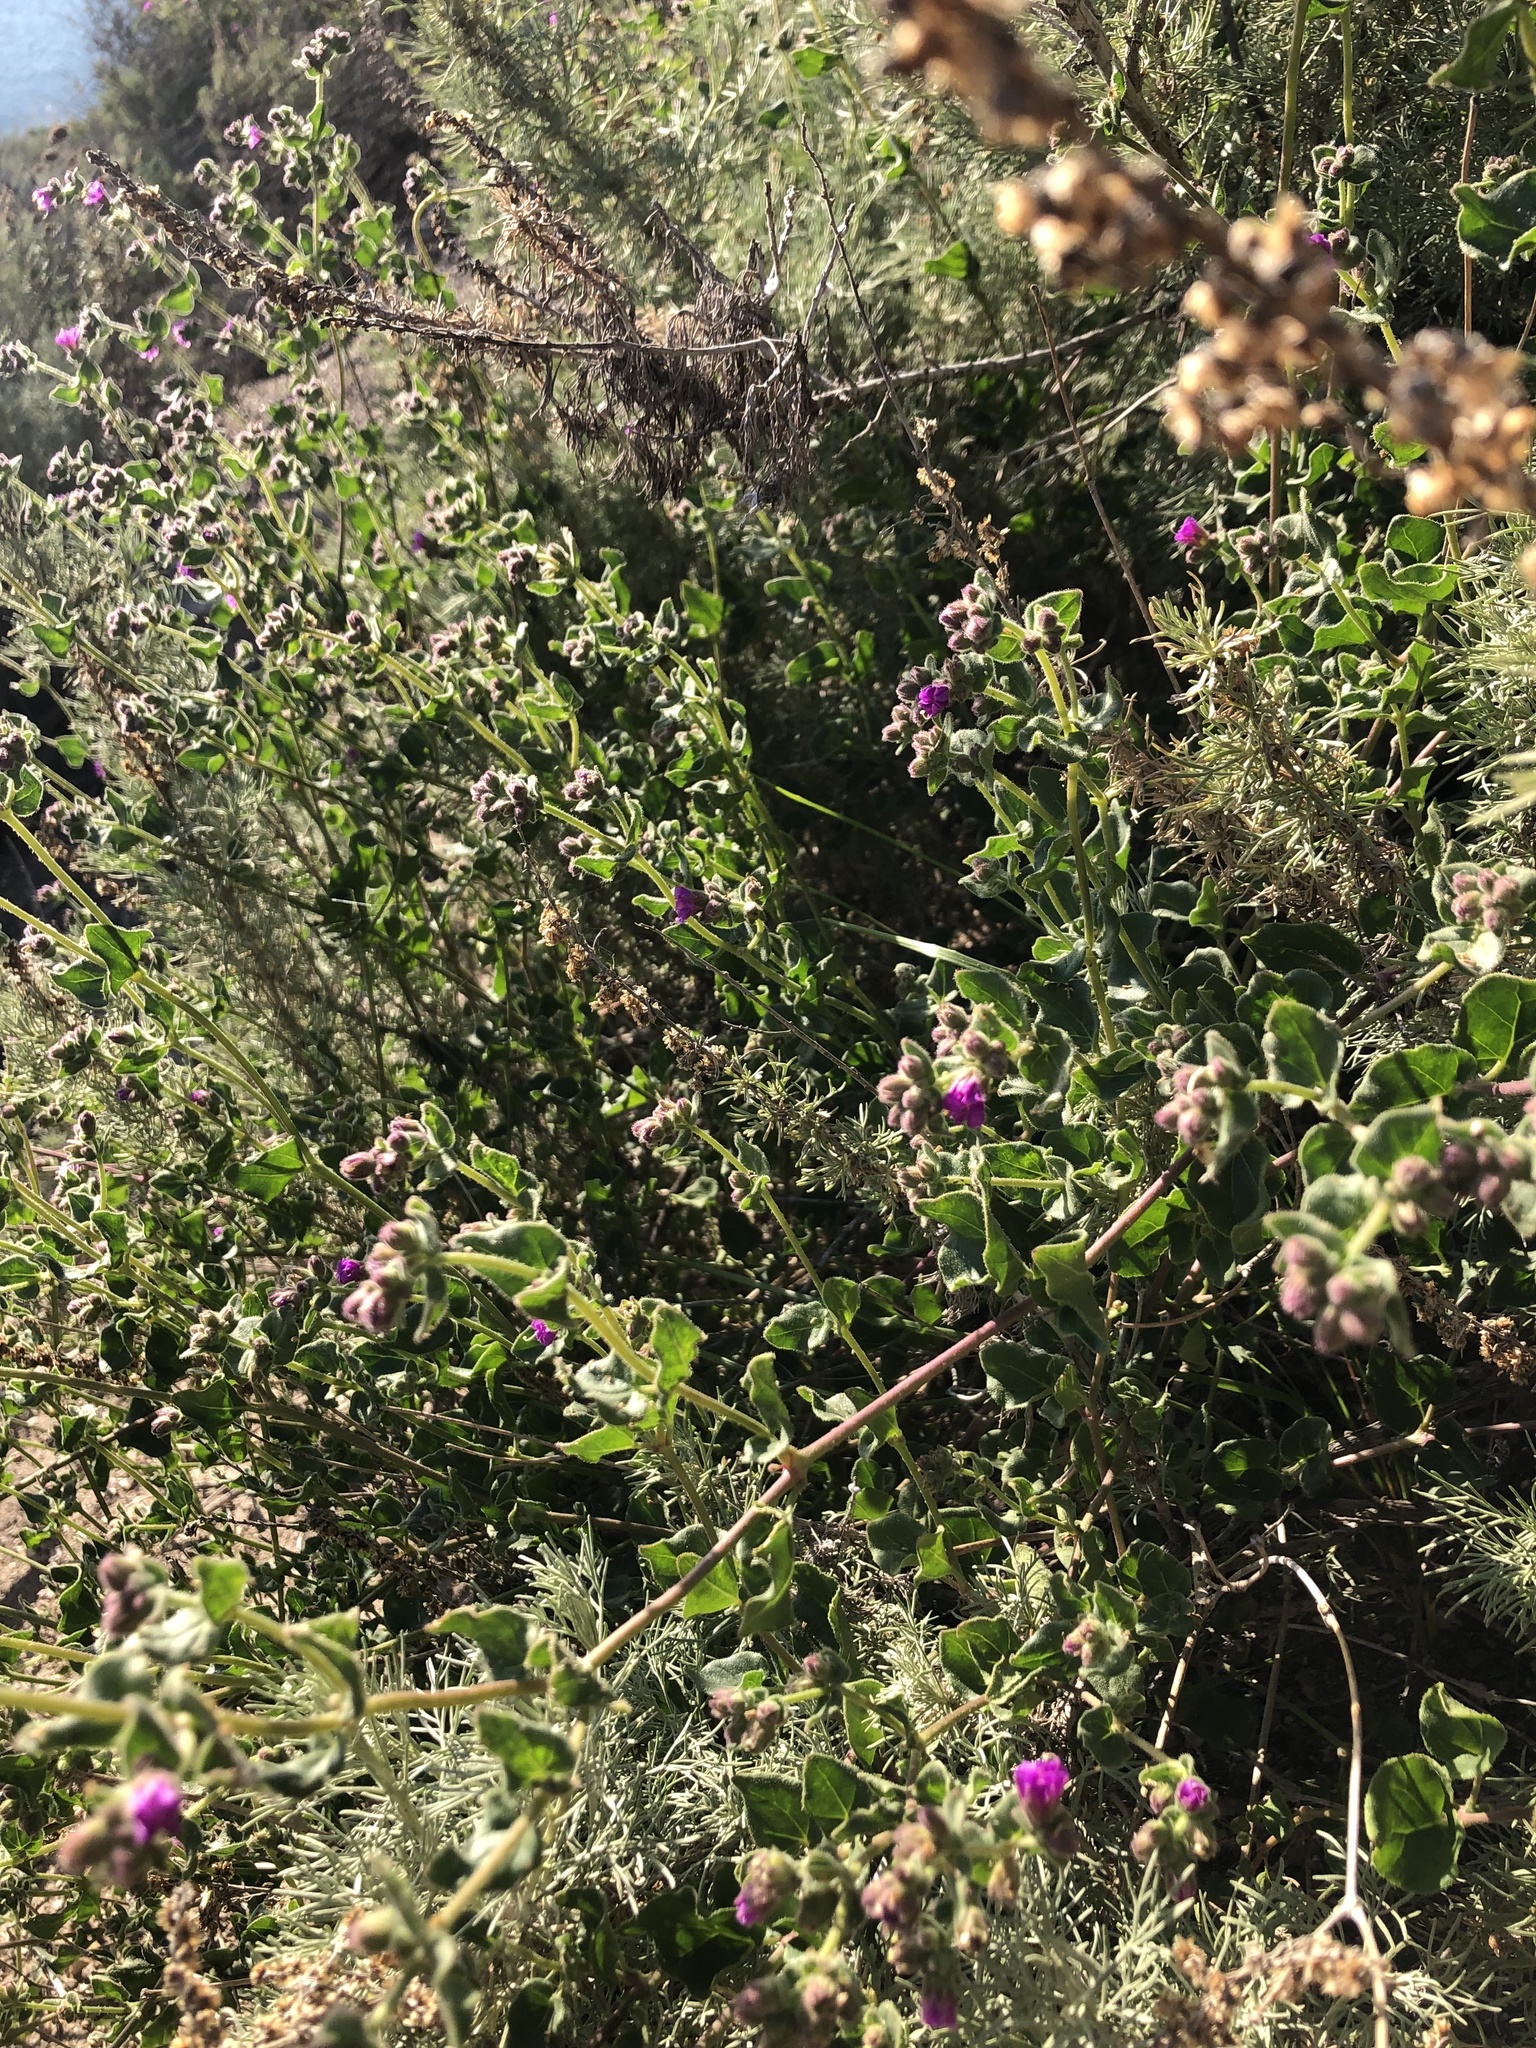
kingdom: Plantae
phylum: Tracheophyta
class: Magnoliopsida
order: Caryophyllales
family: Nyctaginaceae
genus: Mirabilis
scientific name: Mirabilis laevis
